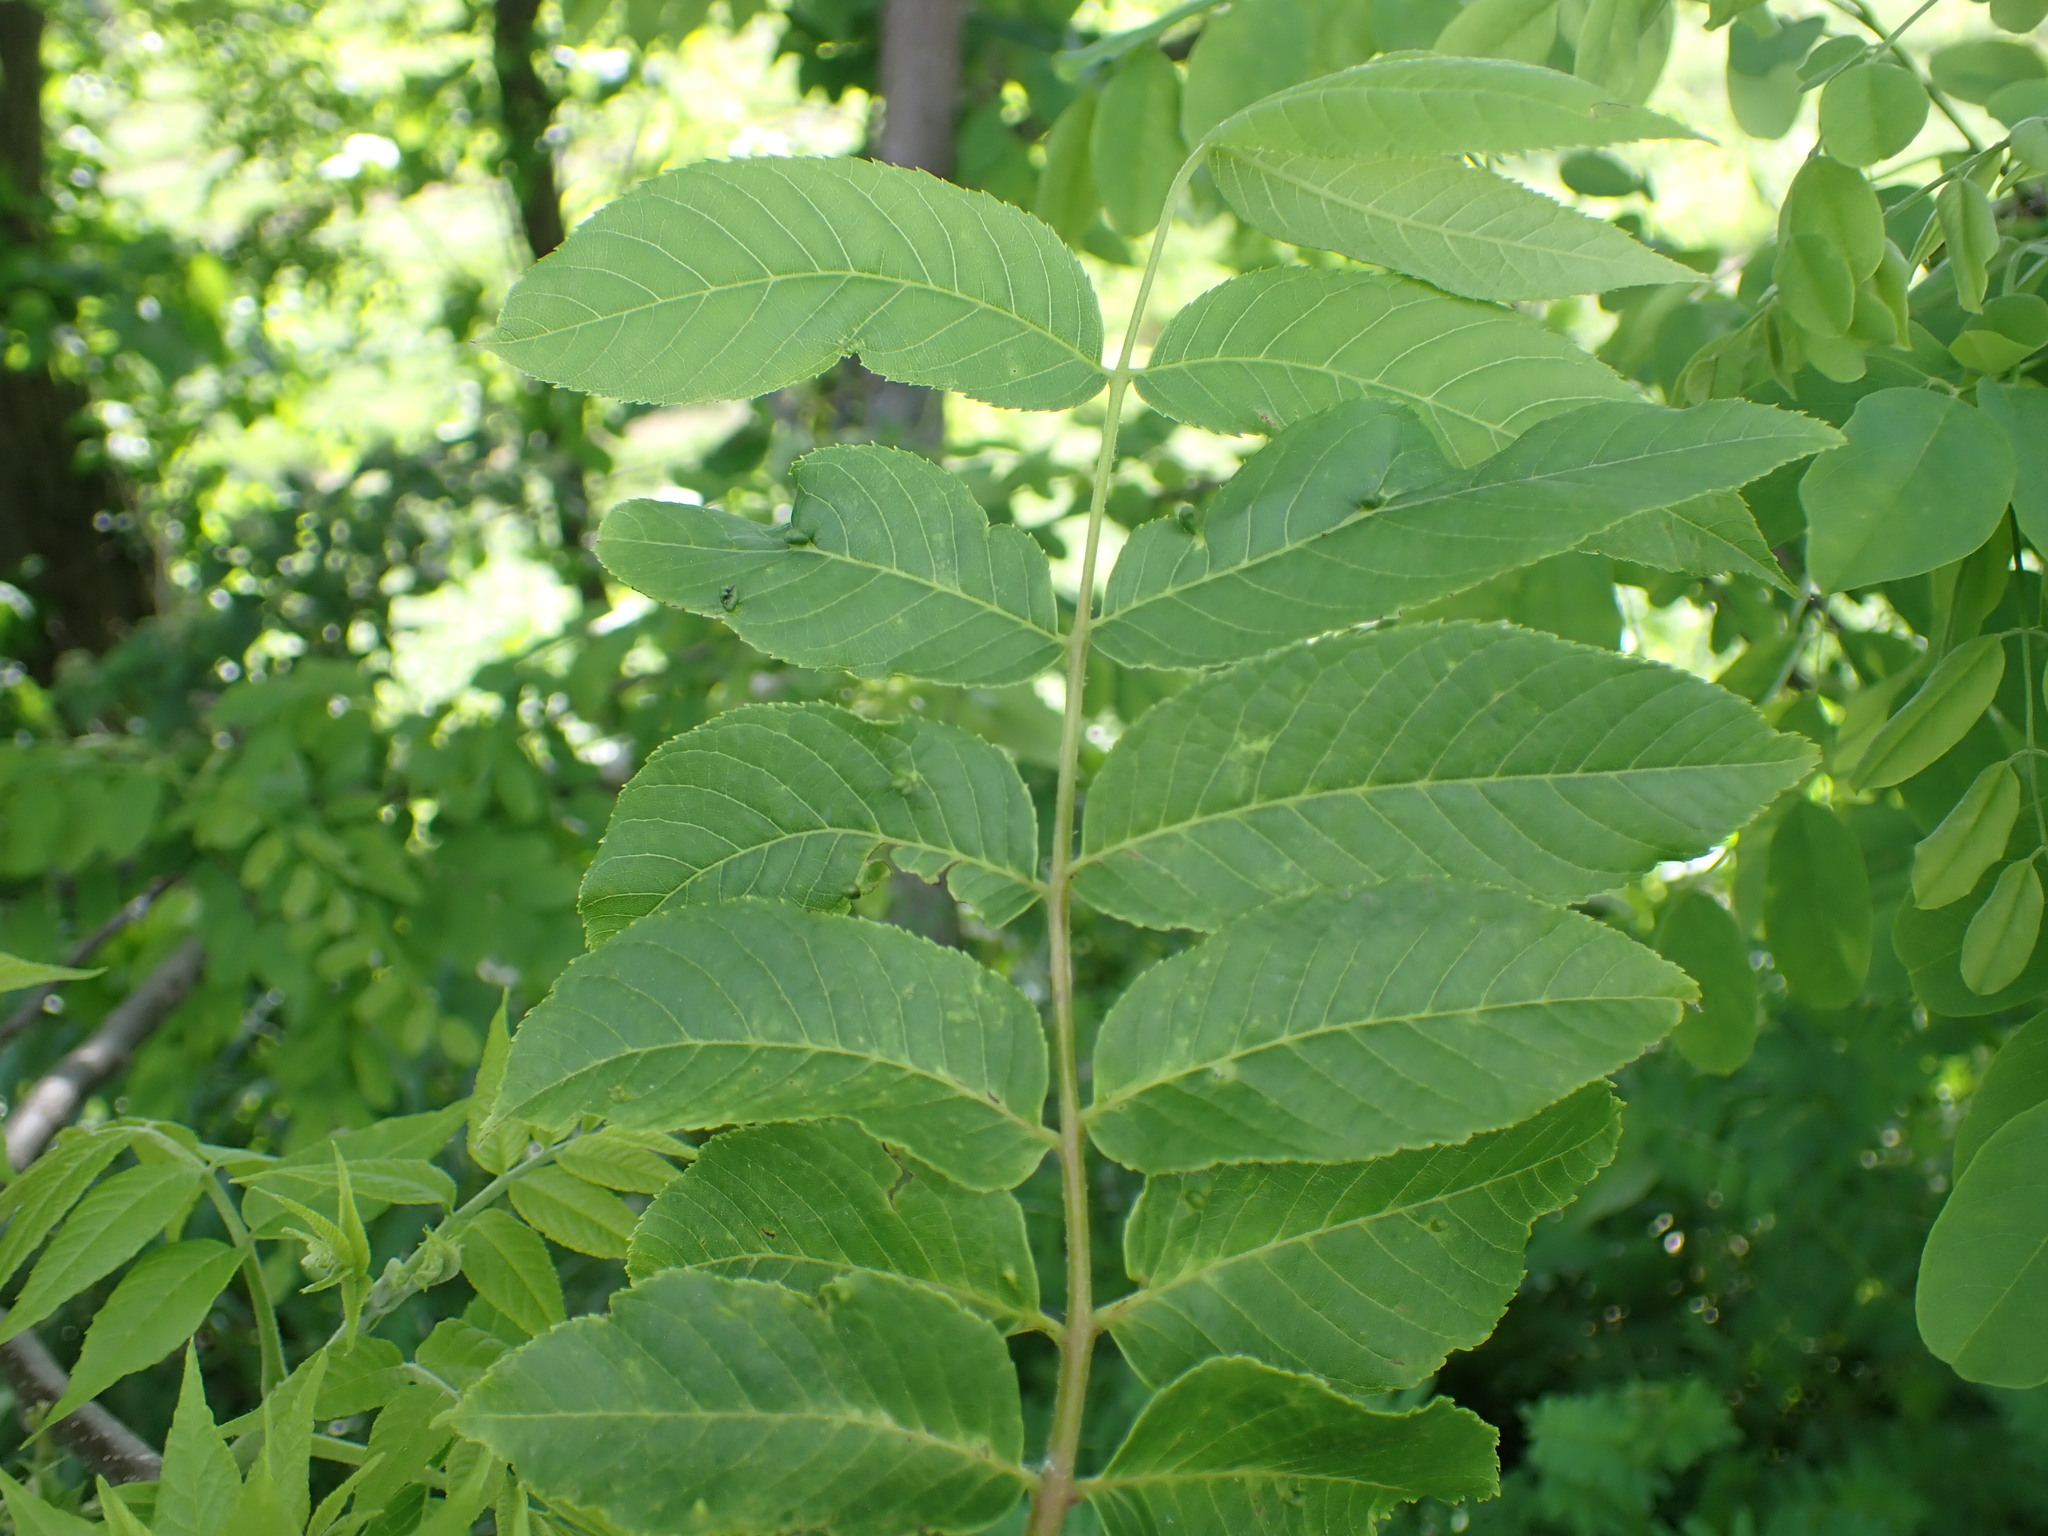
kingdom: Plantae
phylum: Tracheophyta
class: Magnoliopsida
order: Fagales
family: Juglandaceae
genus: Juglans
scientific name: Juglans nigra
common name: Black walnut
